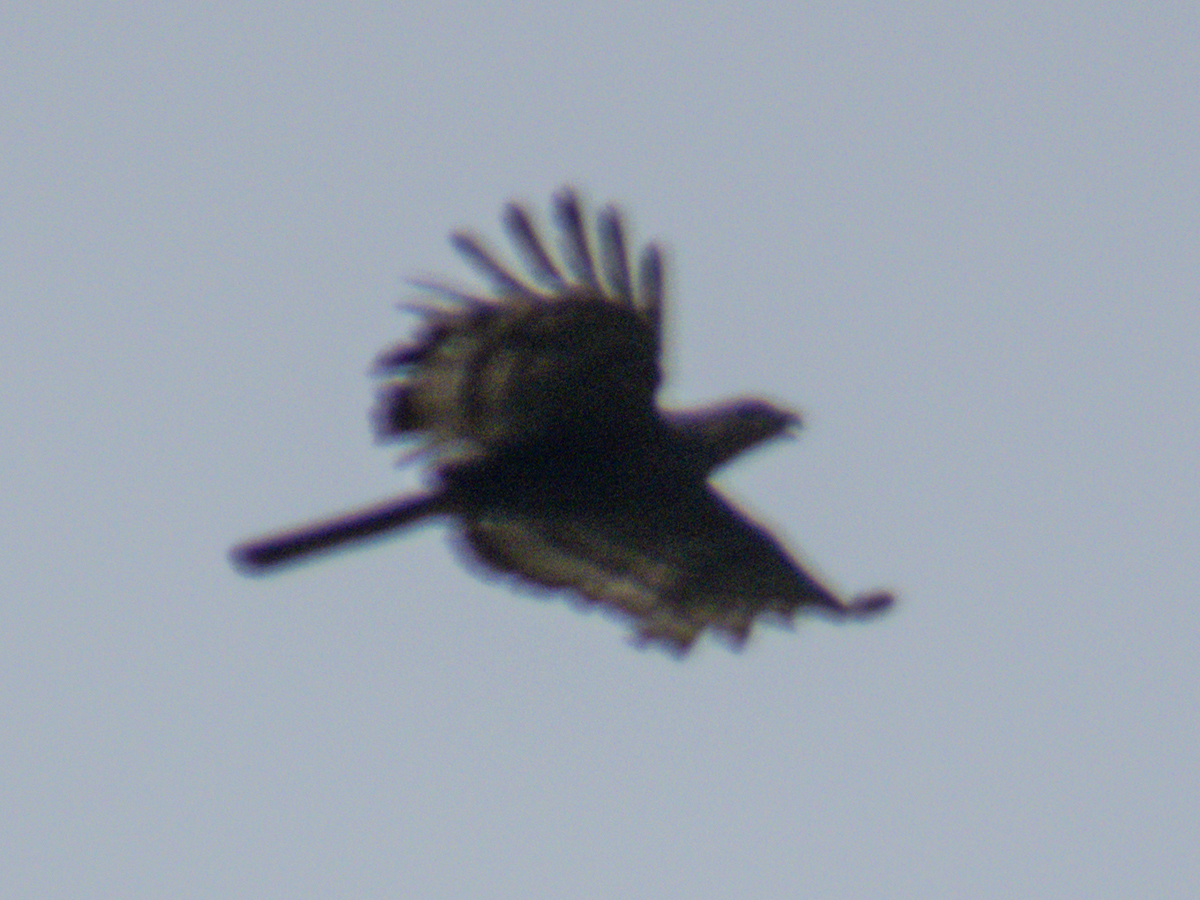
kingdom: Animalia
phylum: Chordata
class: Aves
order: Accipitriformes
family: Accipitridae
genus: Pernis
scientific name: Pernis ptilorhynchus
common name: Crested honey buzzard
